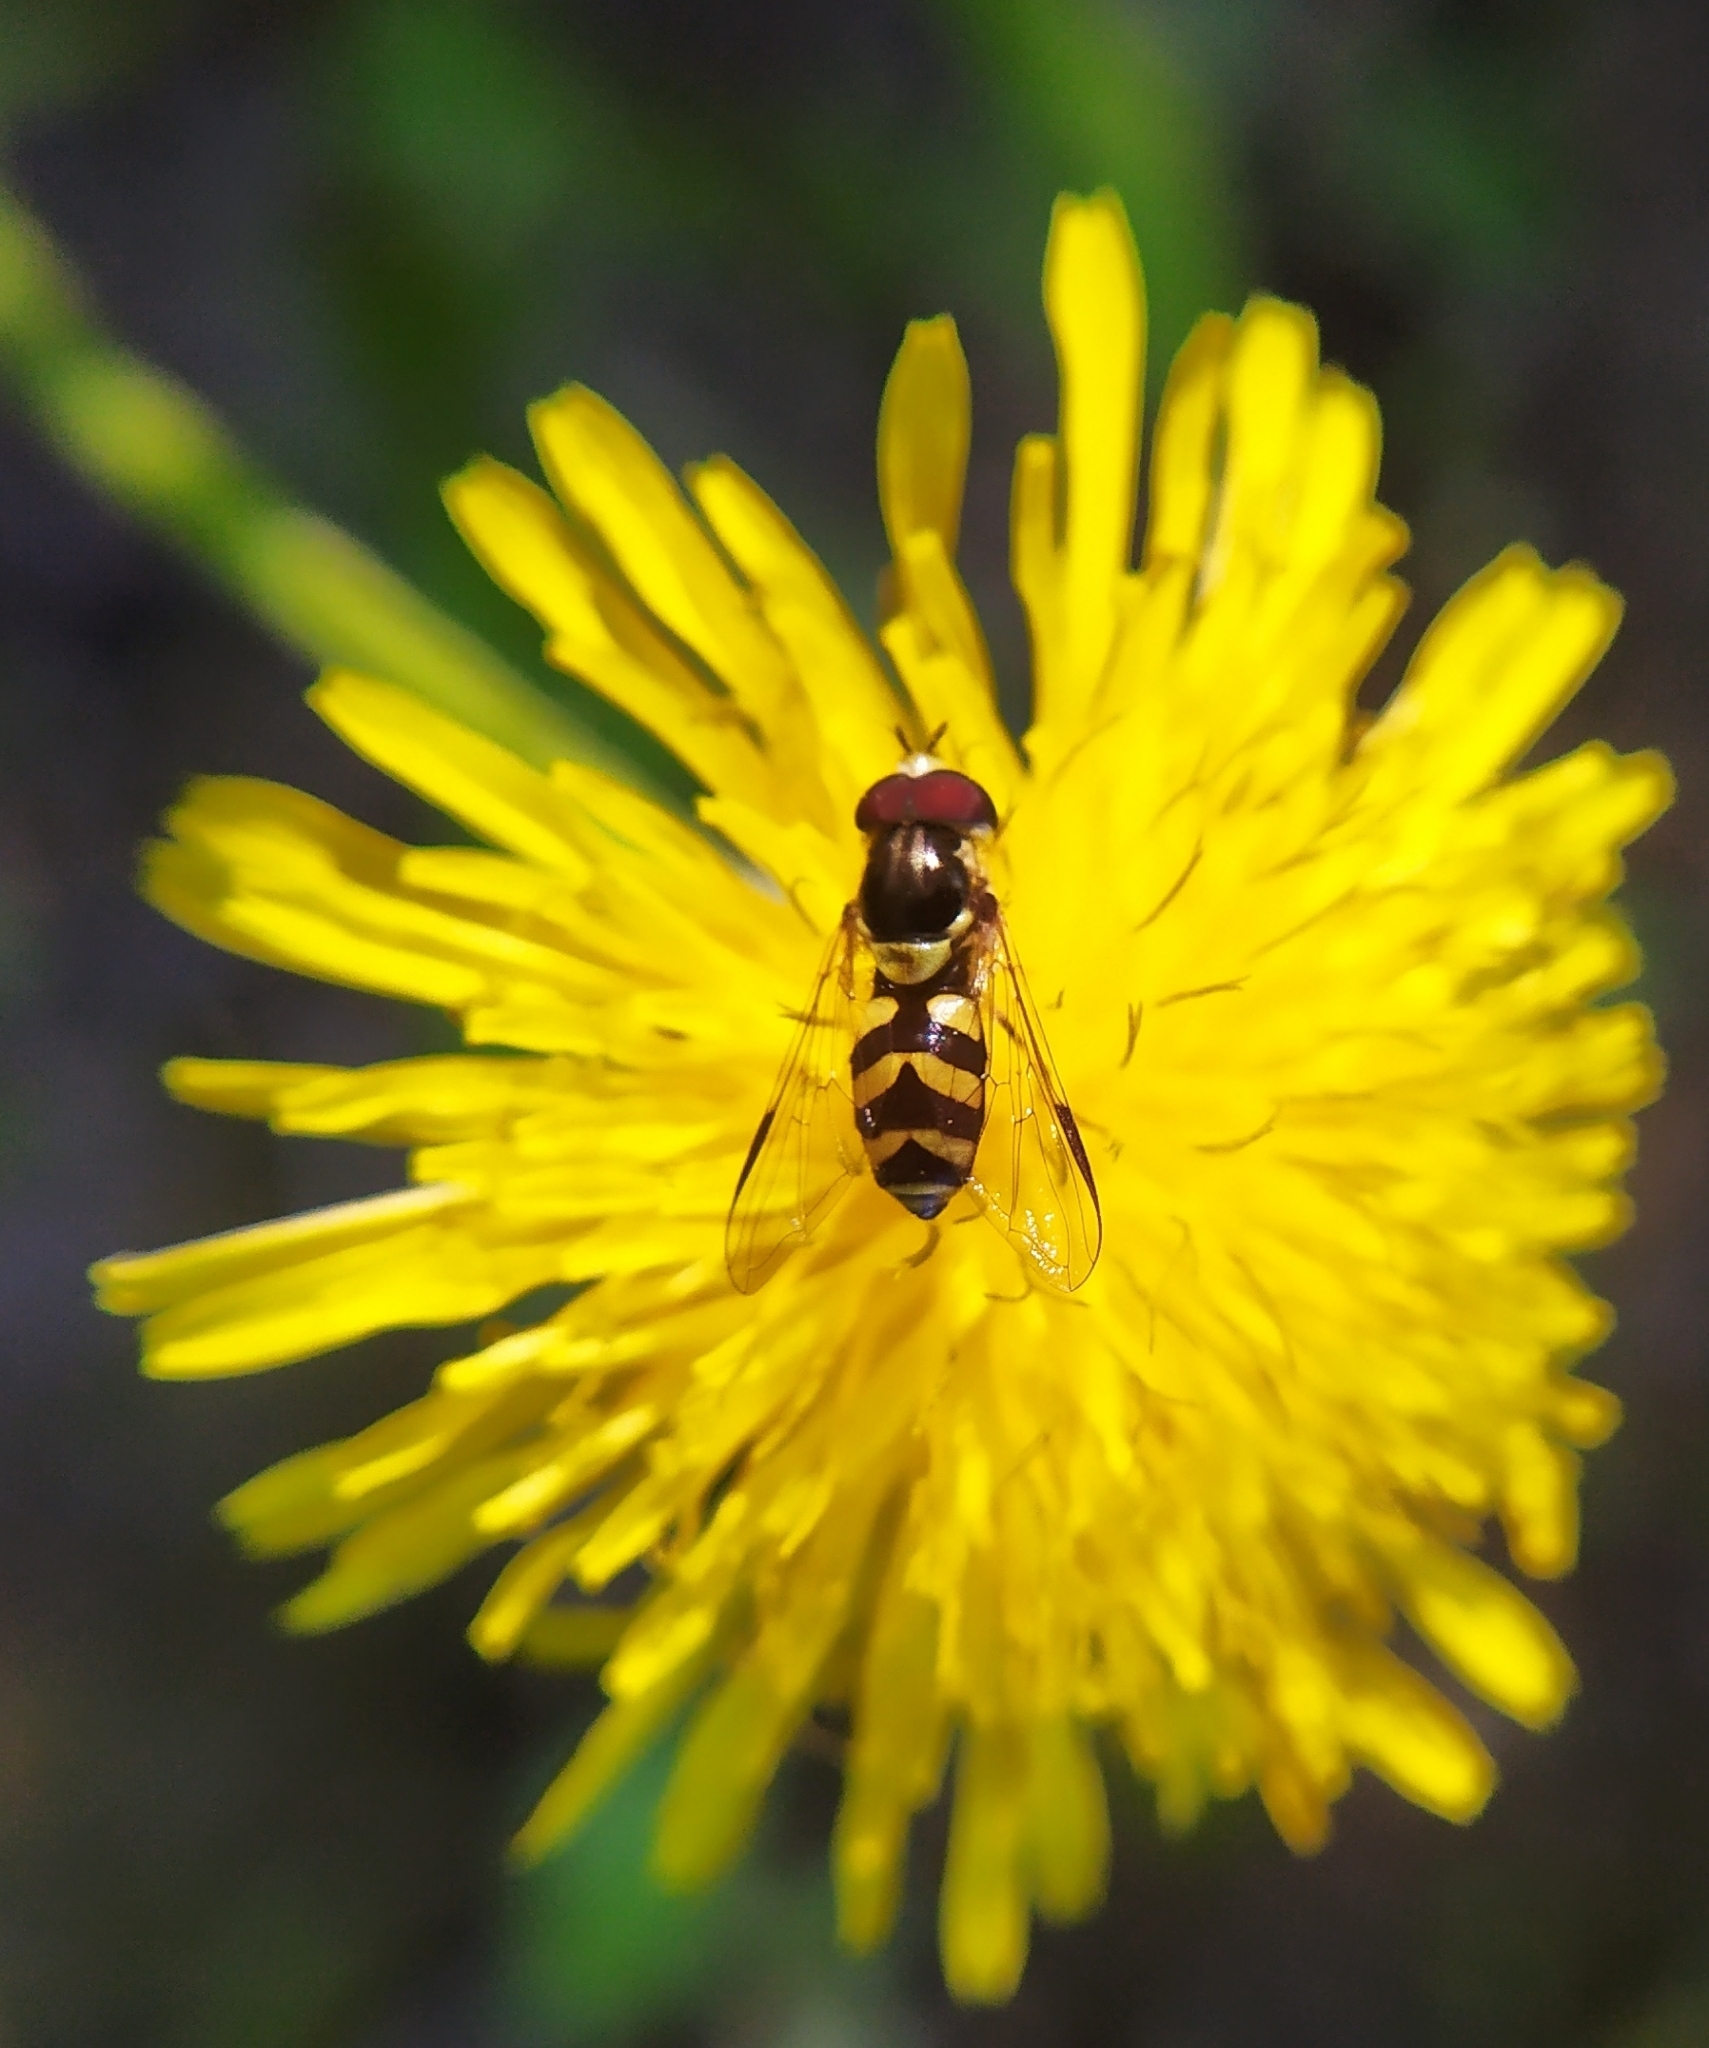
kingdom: Animalia
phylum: Arthropoda
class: Insecta
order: Diptera
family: Syrphidae
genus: Dasysyrphus
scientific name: Dasysyrphus albostriatus
